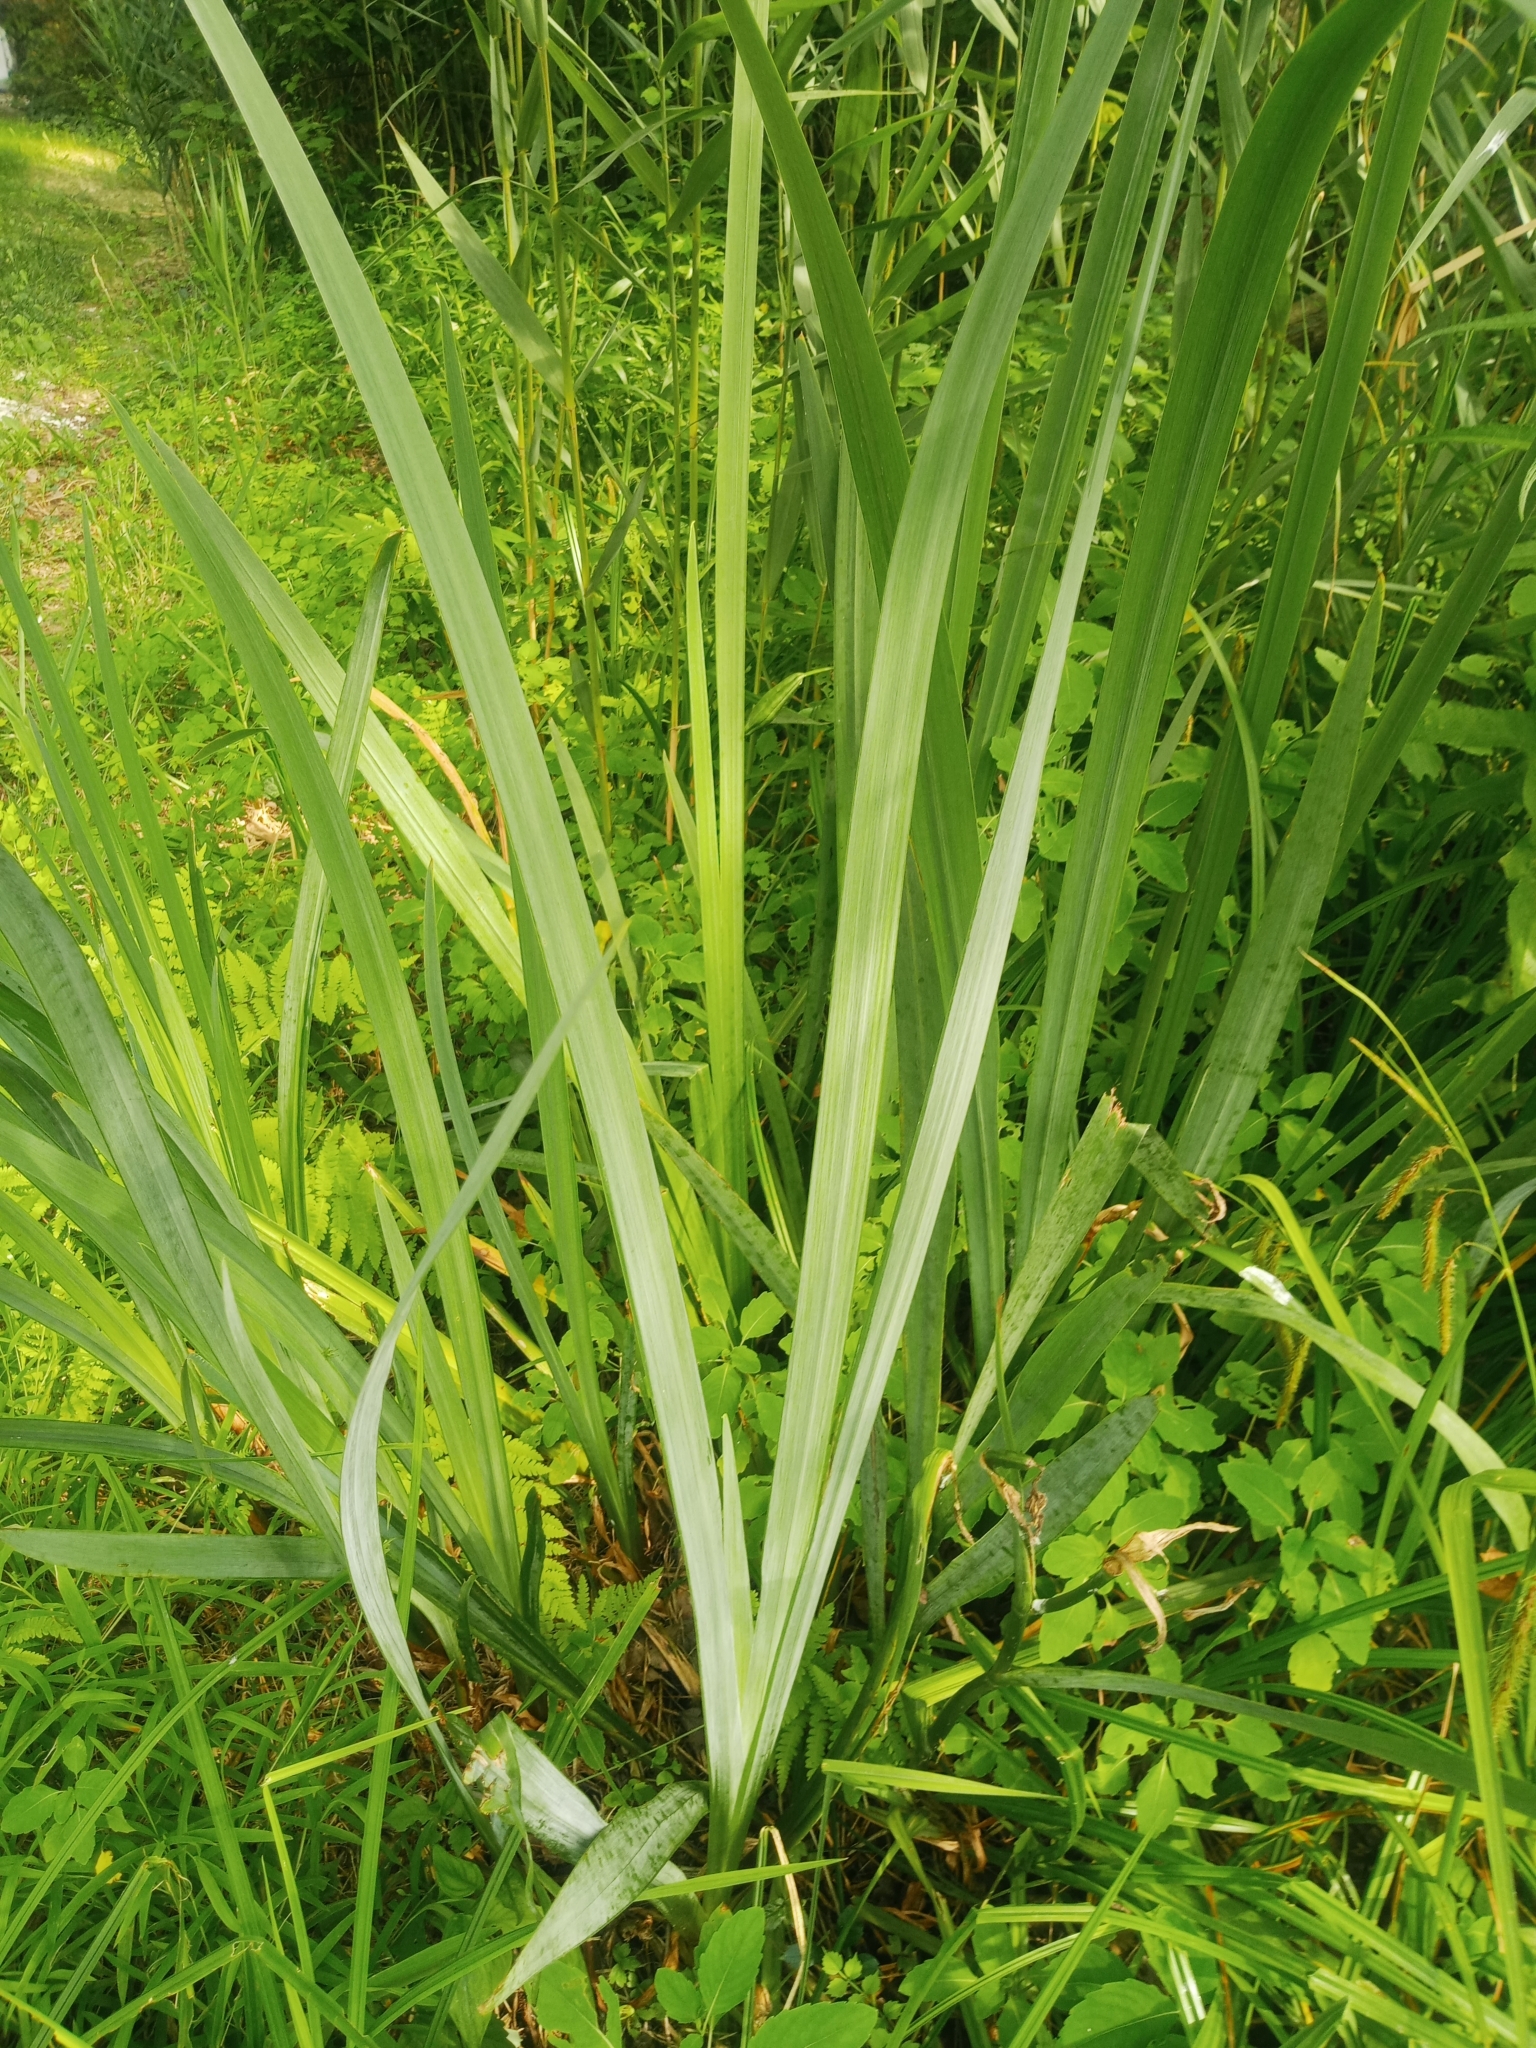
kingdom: Plantae
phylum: Tracheophyta
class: Liliopsida
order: Asparagales
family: Iridaceae
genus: Iris
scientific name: Iris pseudacorus
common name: Yellow flag
